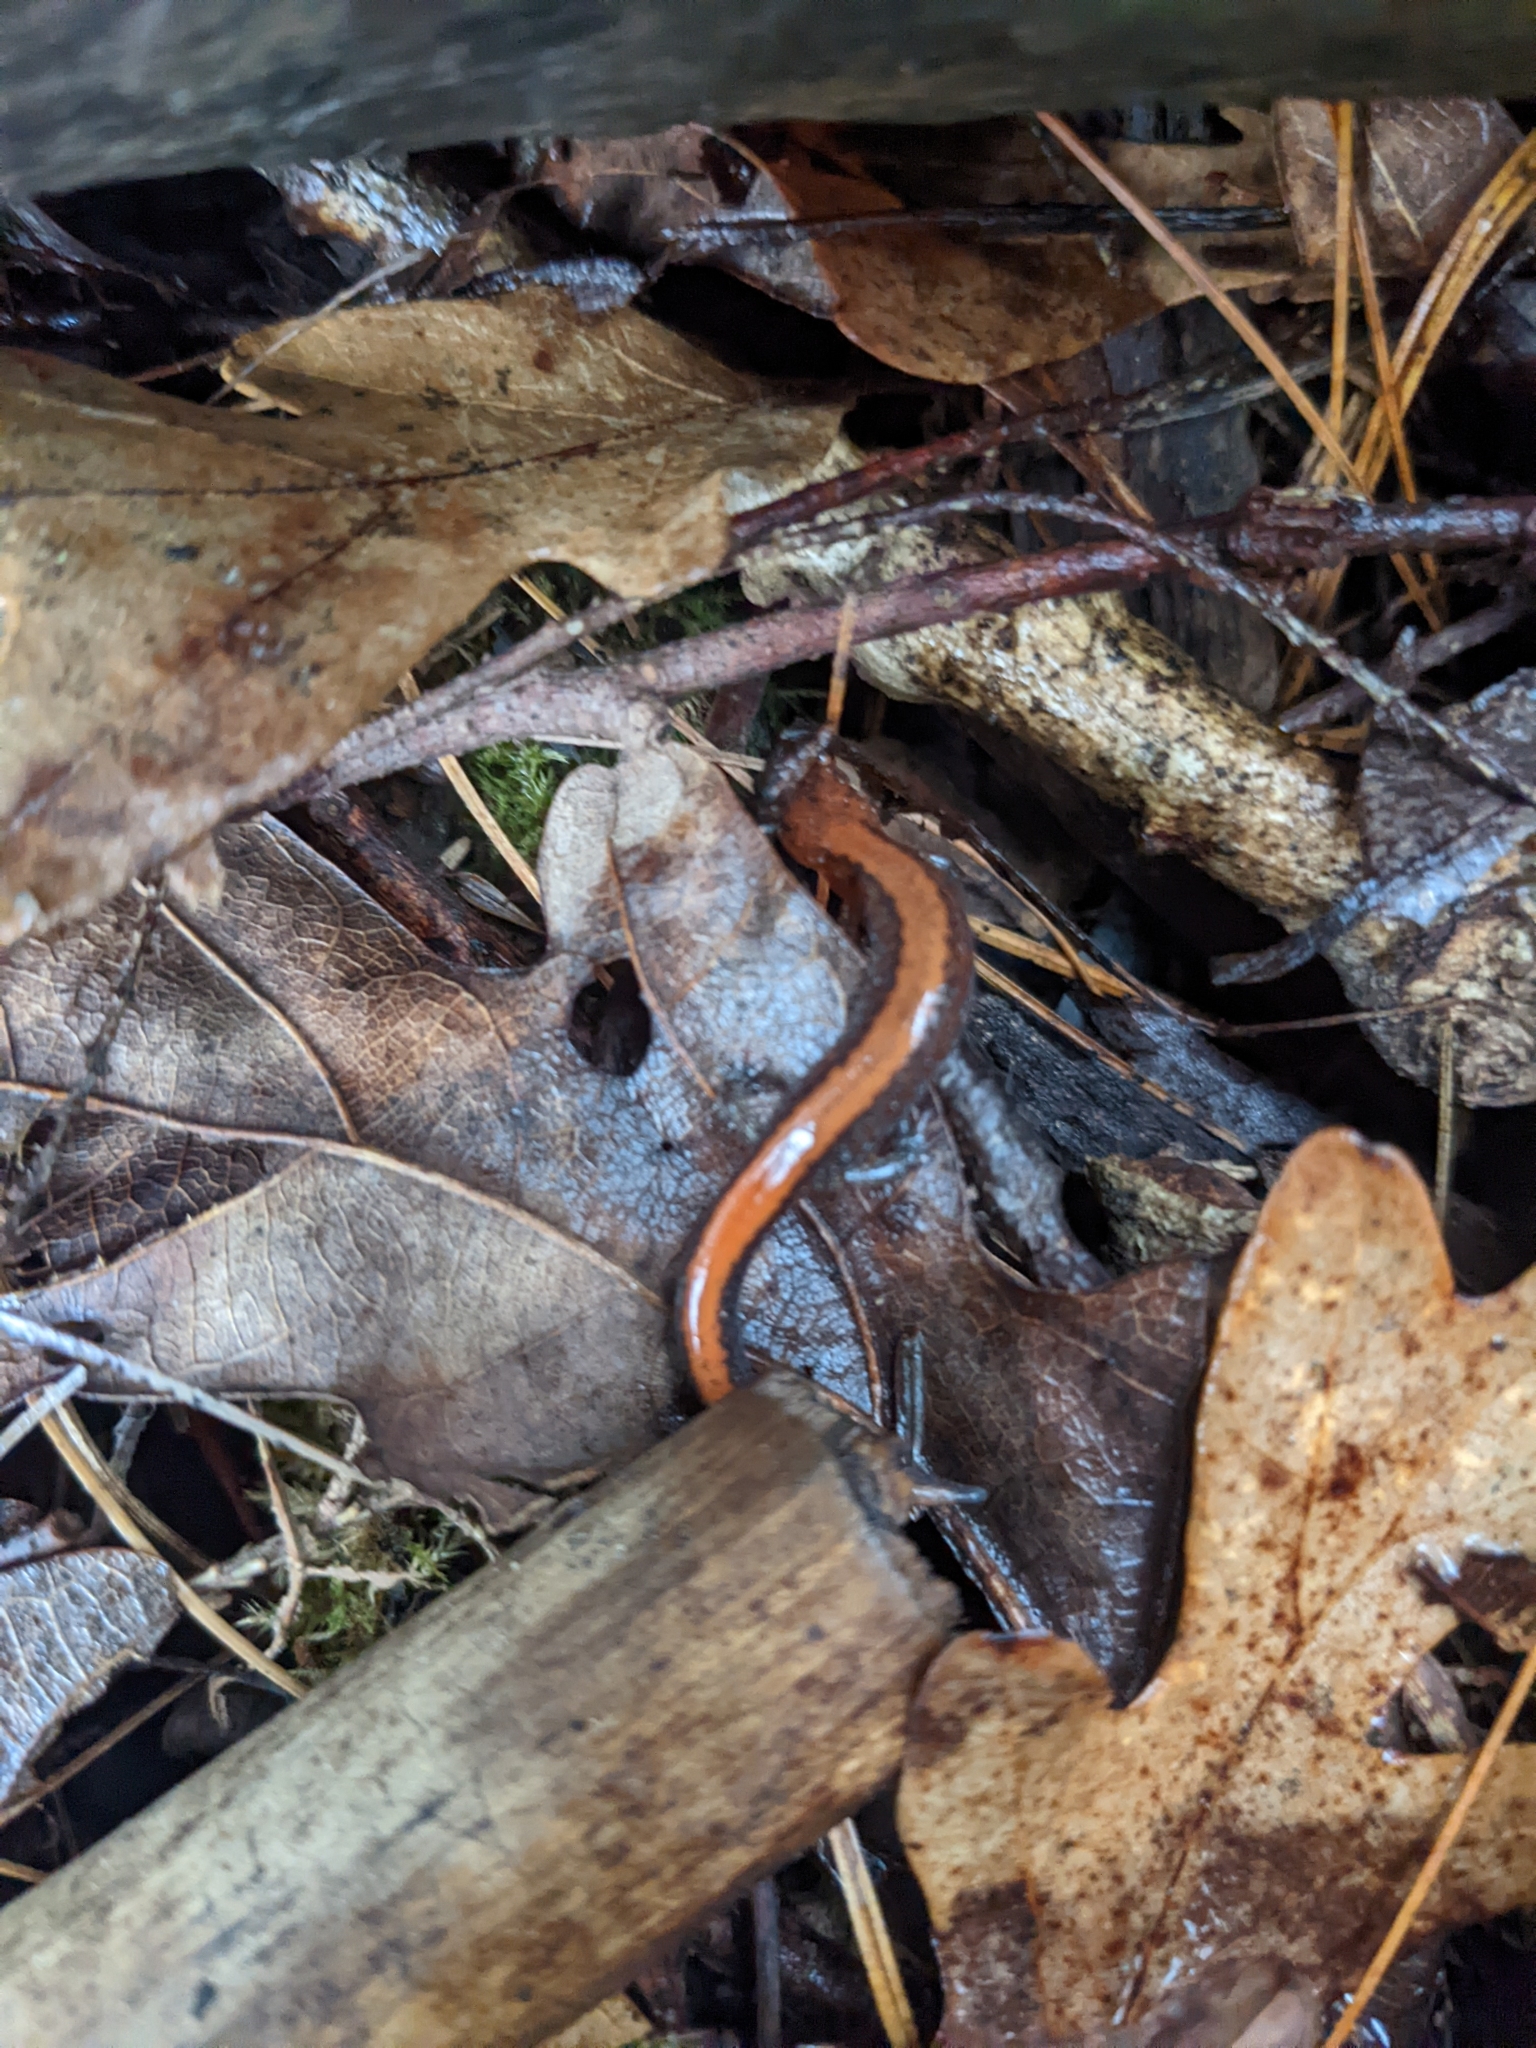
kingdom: Animalia
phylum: Chordata
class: Amphibia
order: Caudata
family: Plethodontidae
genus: Plethodon
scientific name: Plethodon cinereus
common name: Redback salamander
